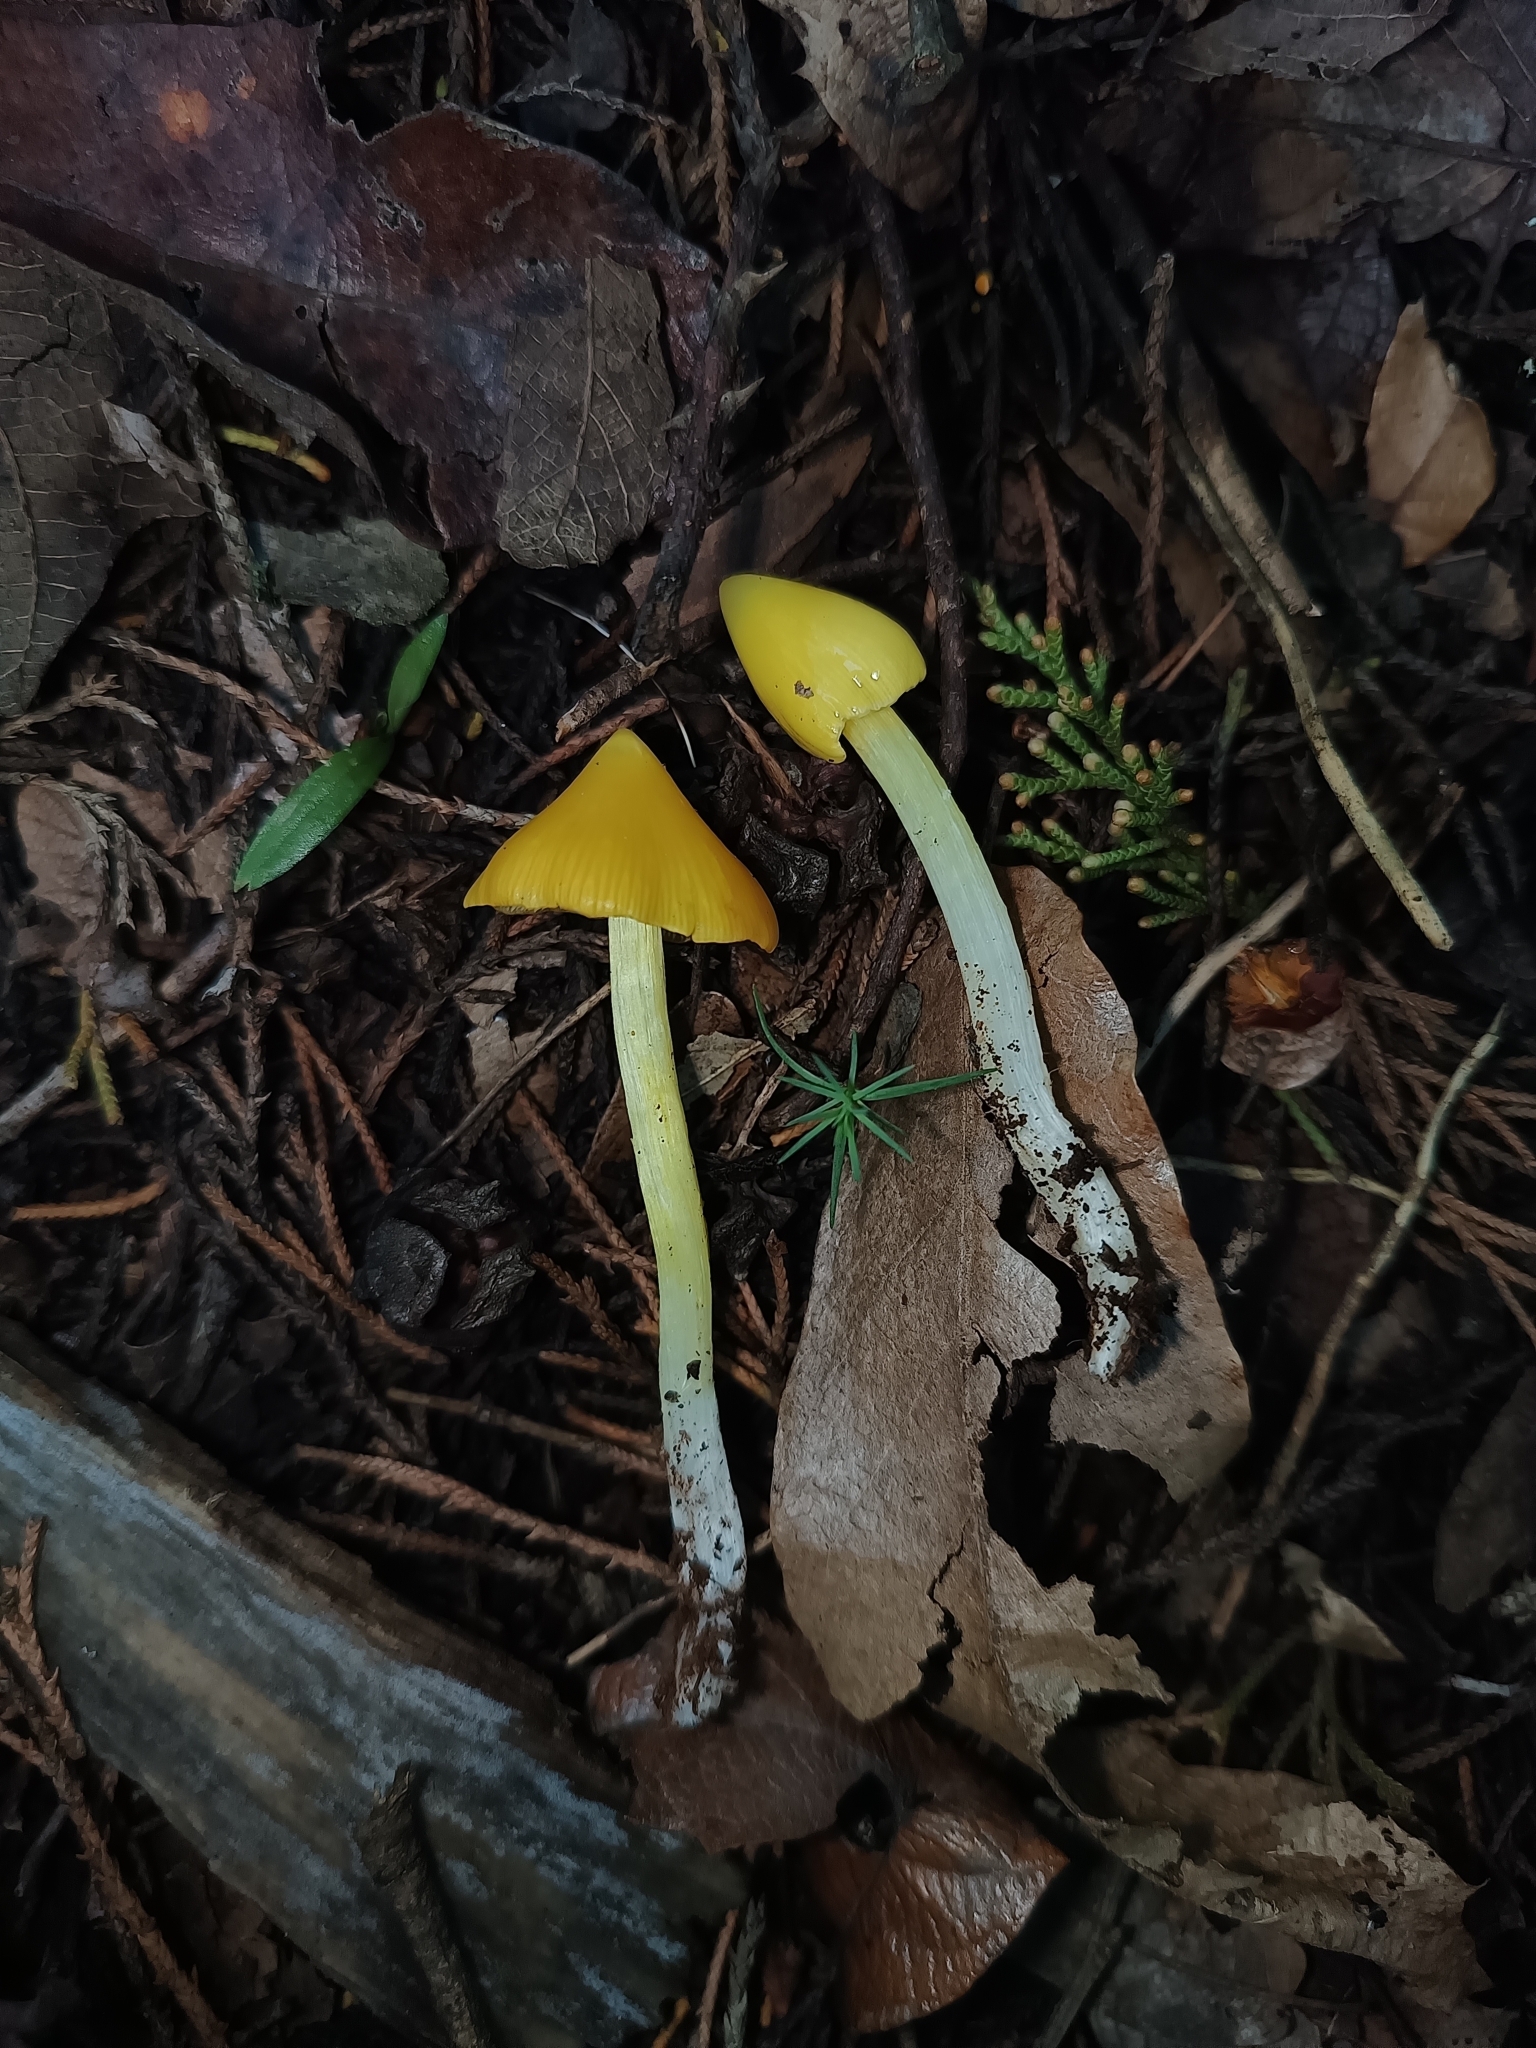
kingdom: Fungi
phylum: Basidiomycota
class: Agaricomycetes
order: Agaricales
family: Hygrophoraceae
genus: Hygrocybe
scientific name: Hygrocybe acutoconica
